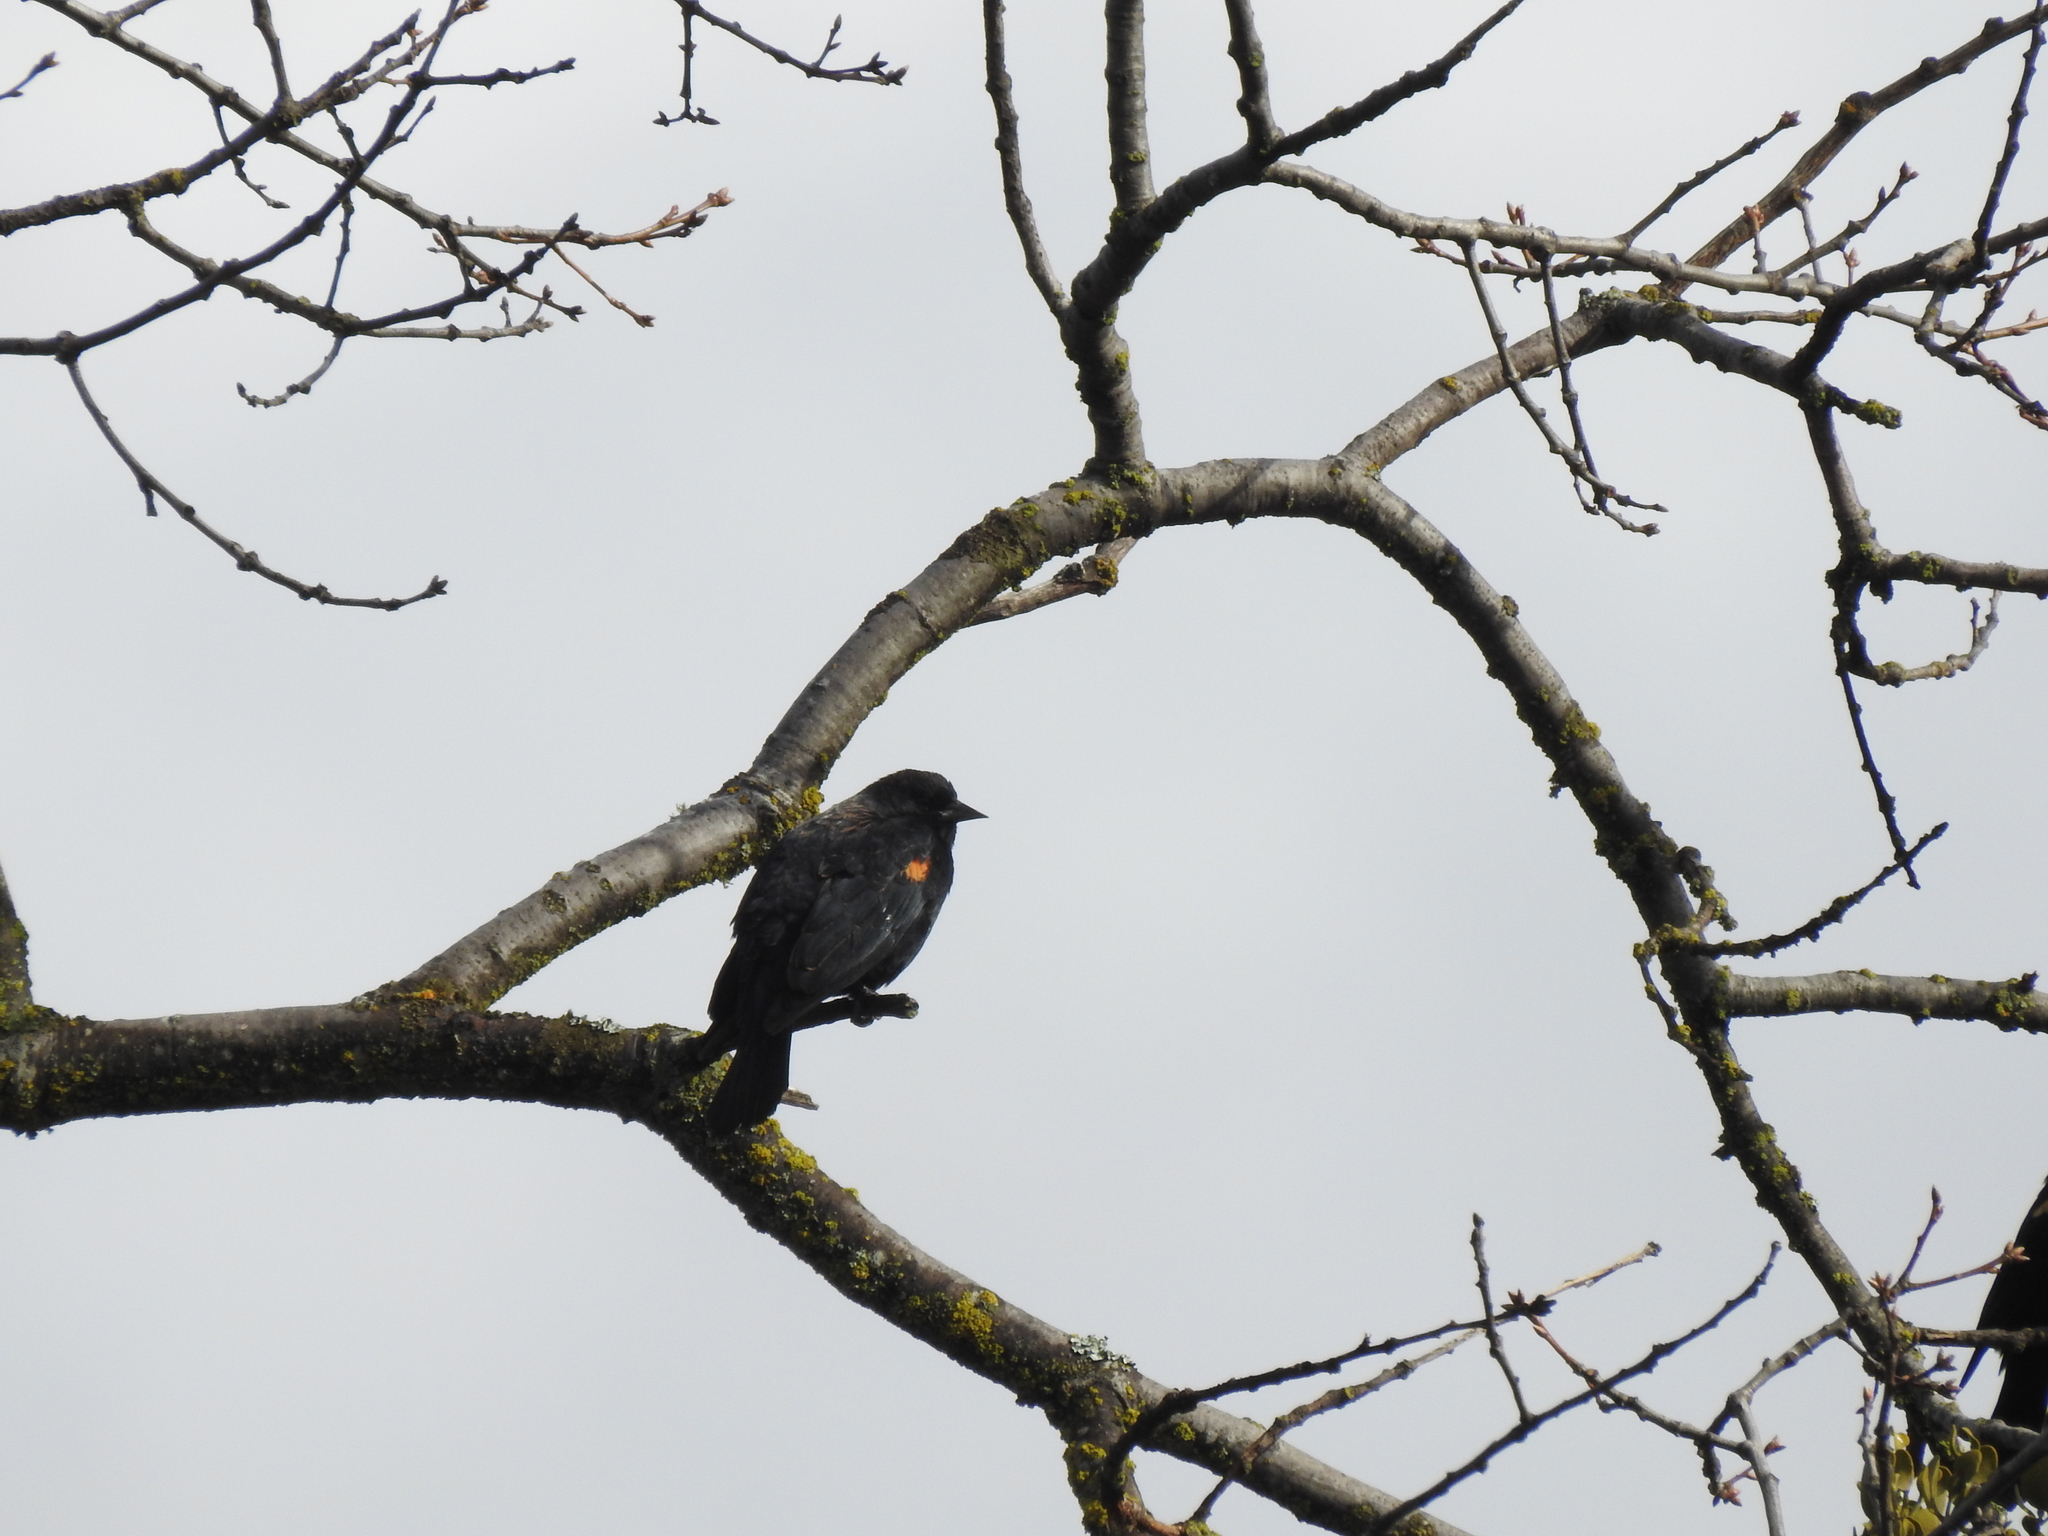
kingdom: Animalia
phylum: Chordata
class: Aves
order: Passeriformes
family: Icteridae
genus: Agelaius
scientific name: Agelaius phoeniceus
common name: Red-winged blackbird
